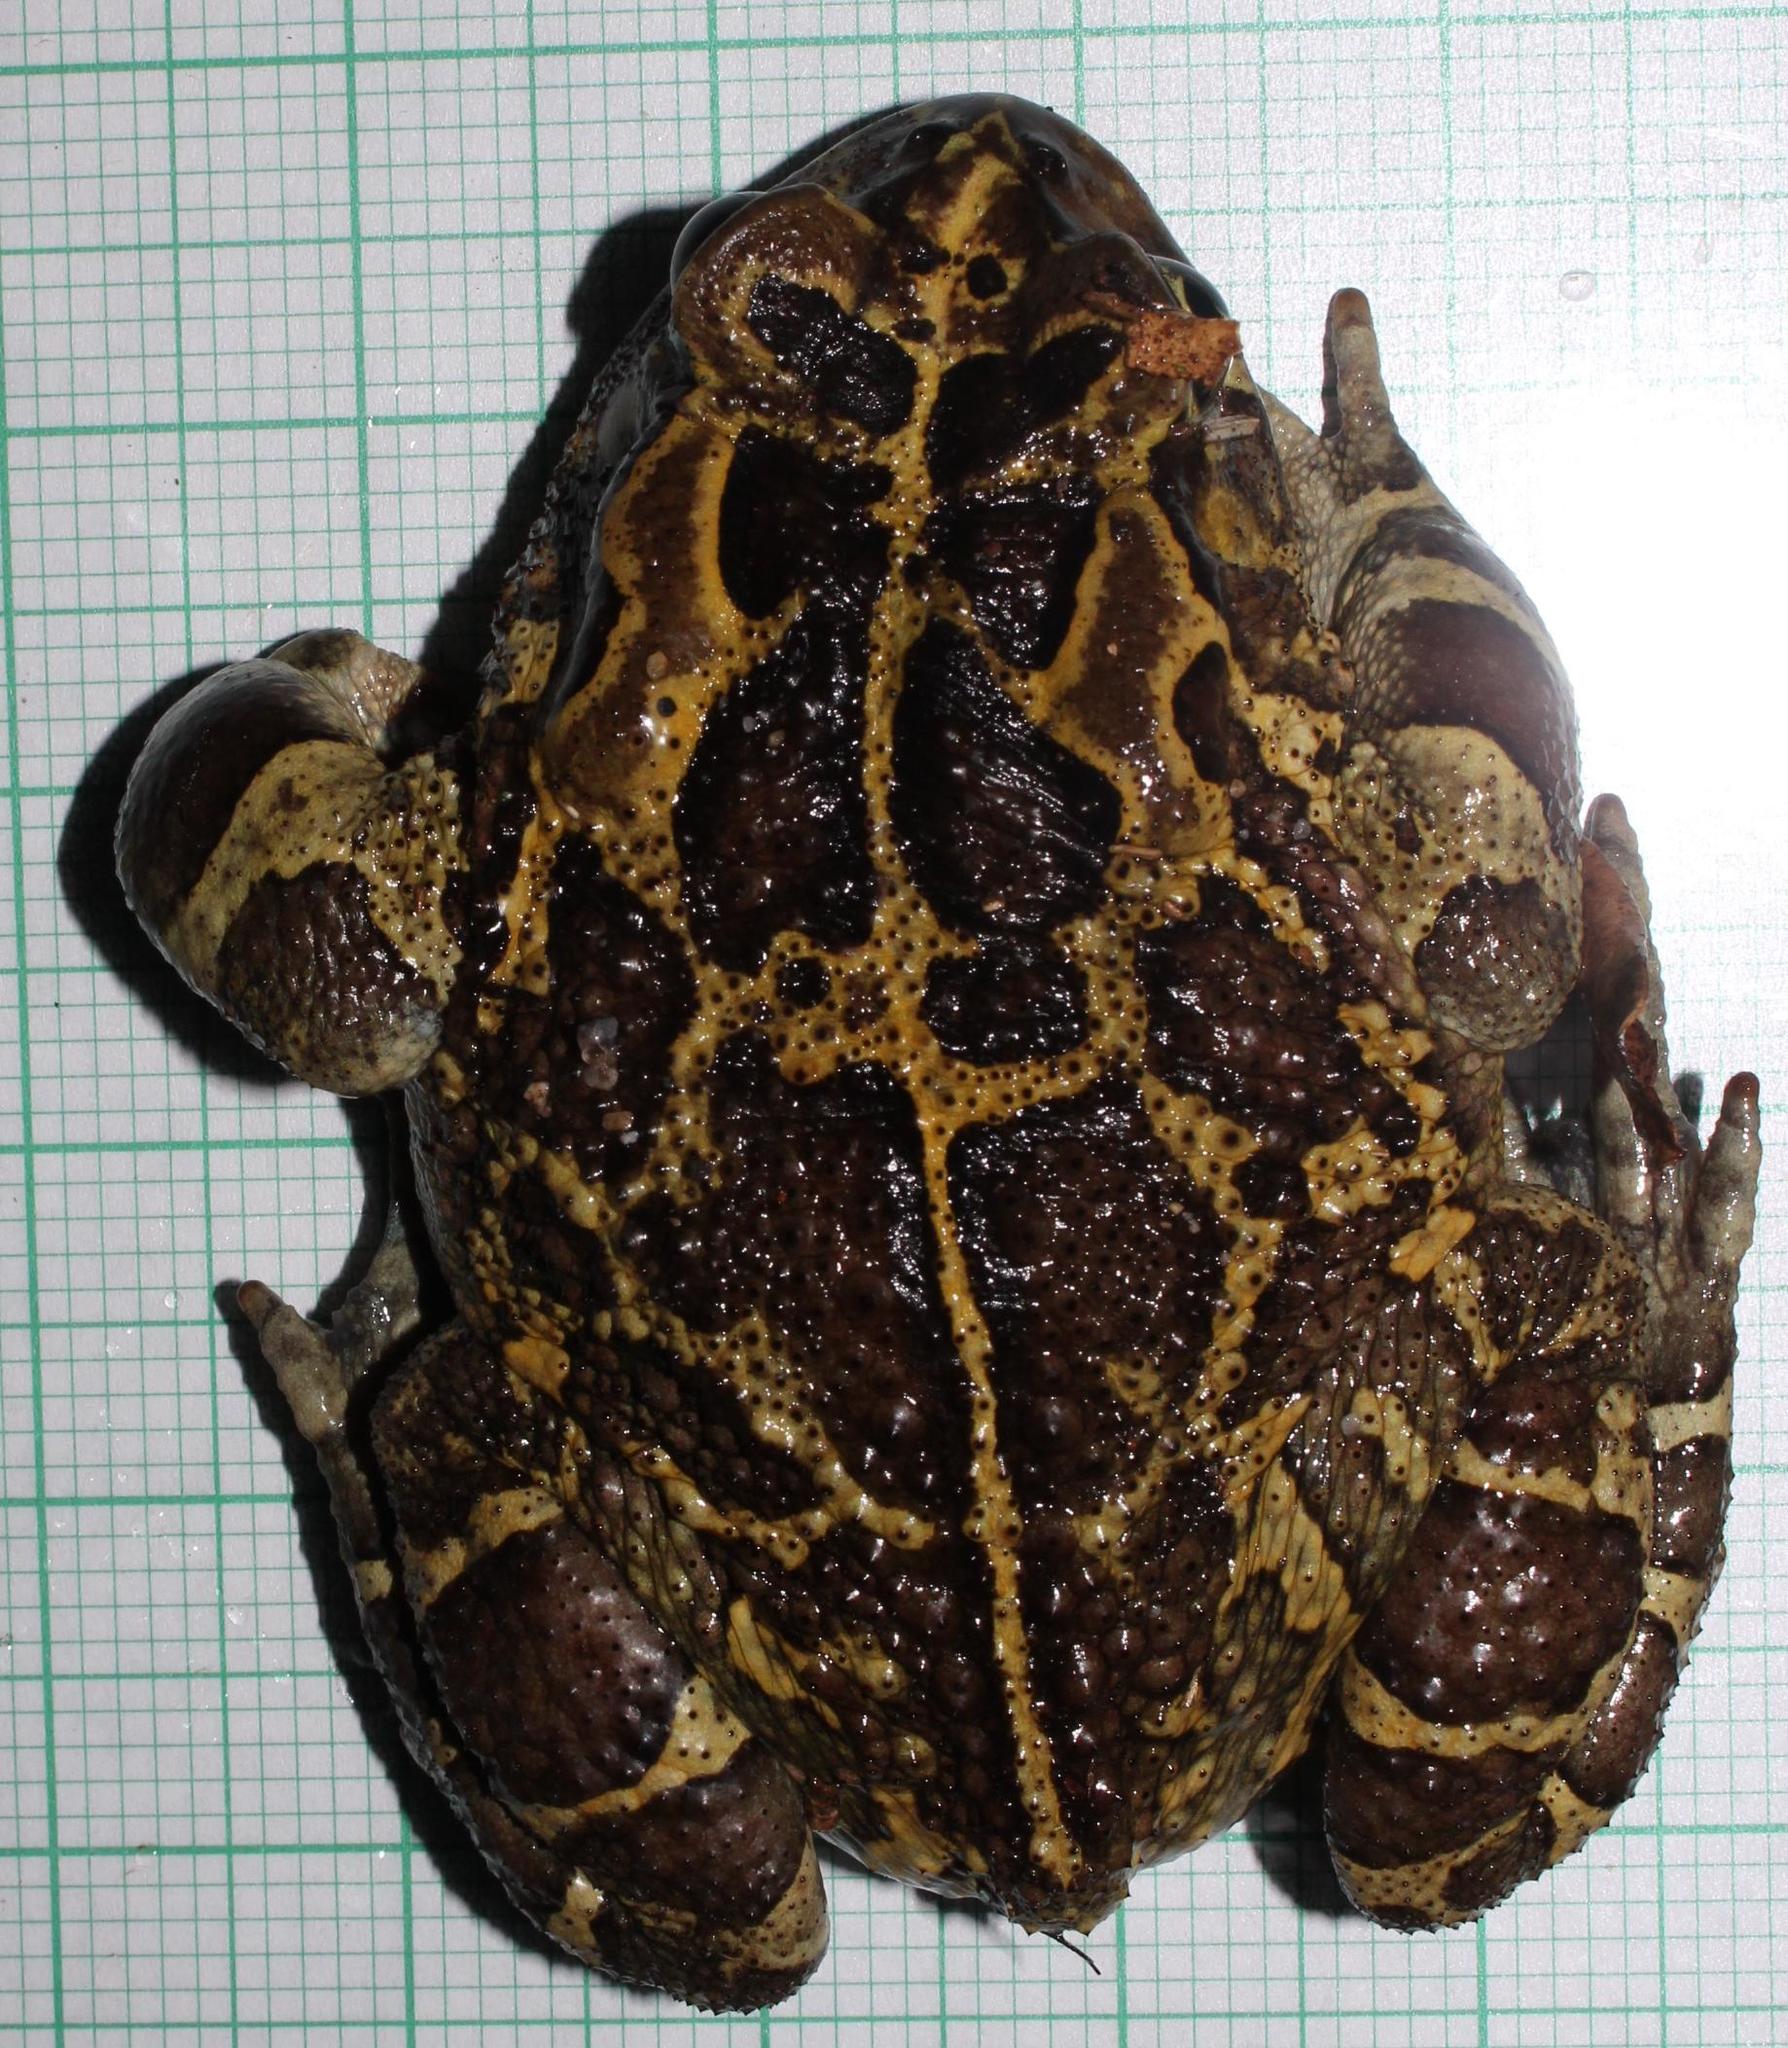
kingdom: Animalia
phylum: Chordata
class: Amphibia
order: Anura
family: Bufonidae
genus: Sclerophrys
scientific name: Sclerophrys pantherina
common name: Panther toad
